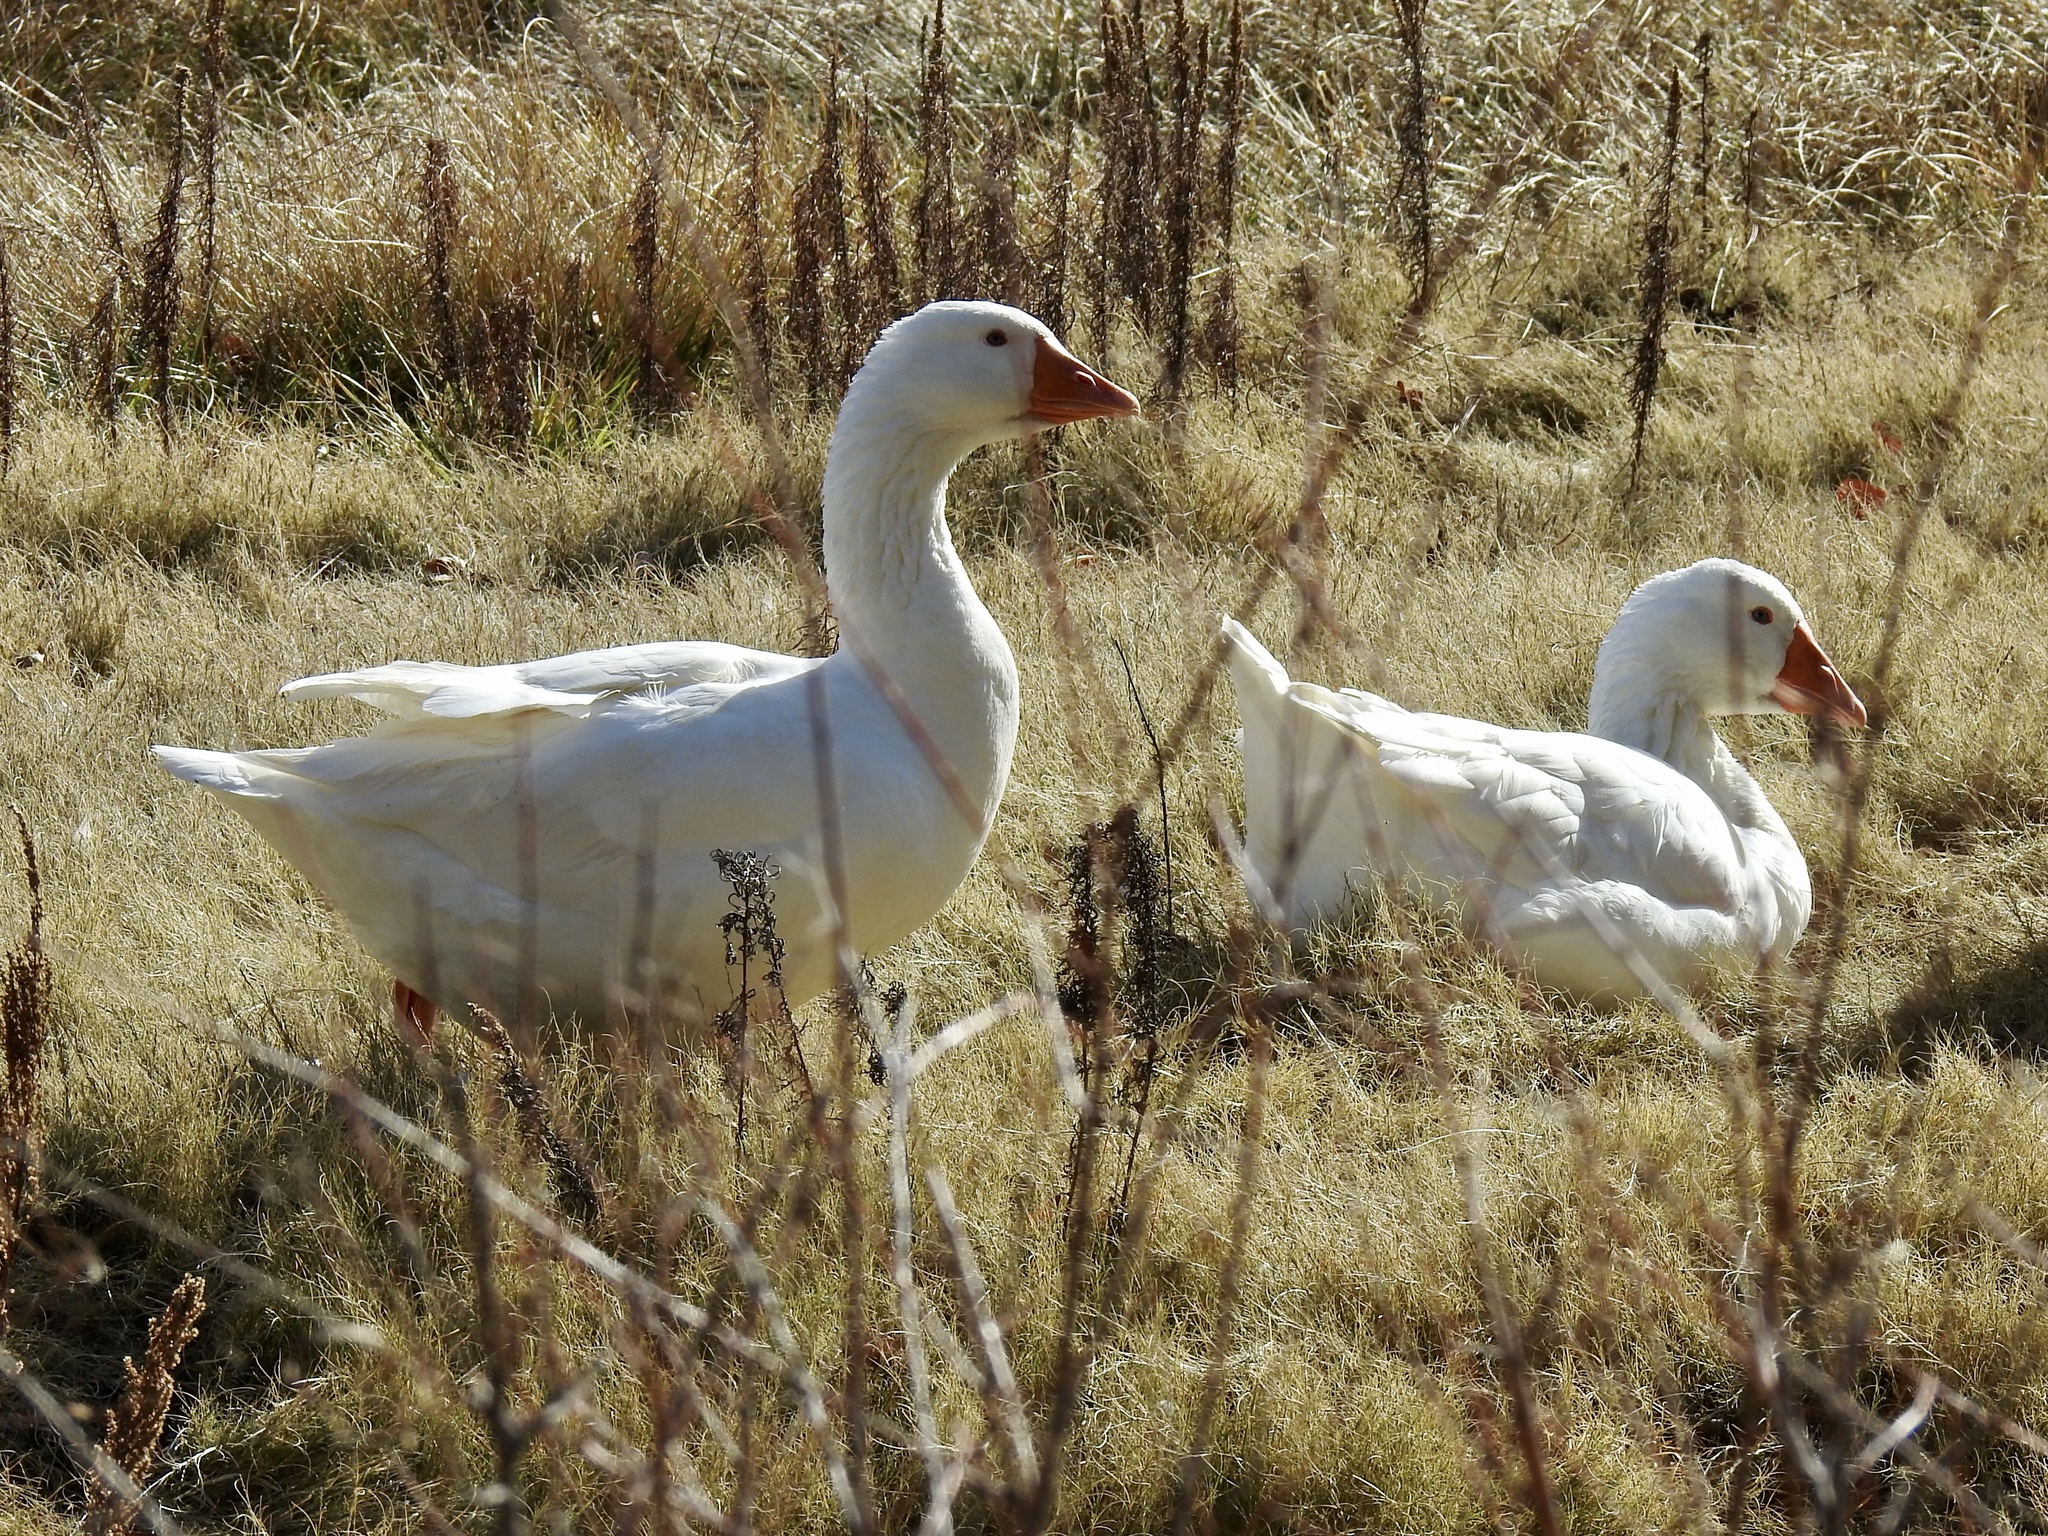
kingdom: Animalia
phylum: Chordata
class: Aves
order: Anseriformes
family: Anatidae
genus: Anser
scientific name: Anser anser
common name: Greylag goose
